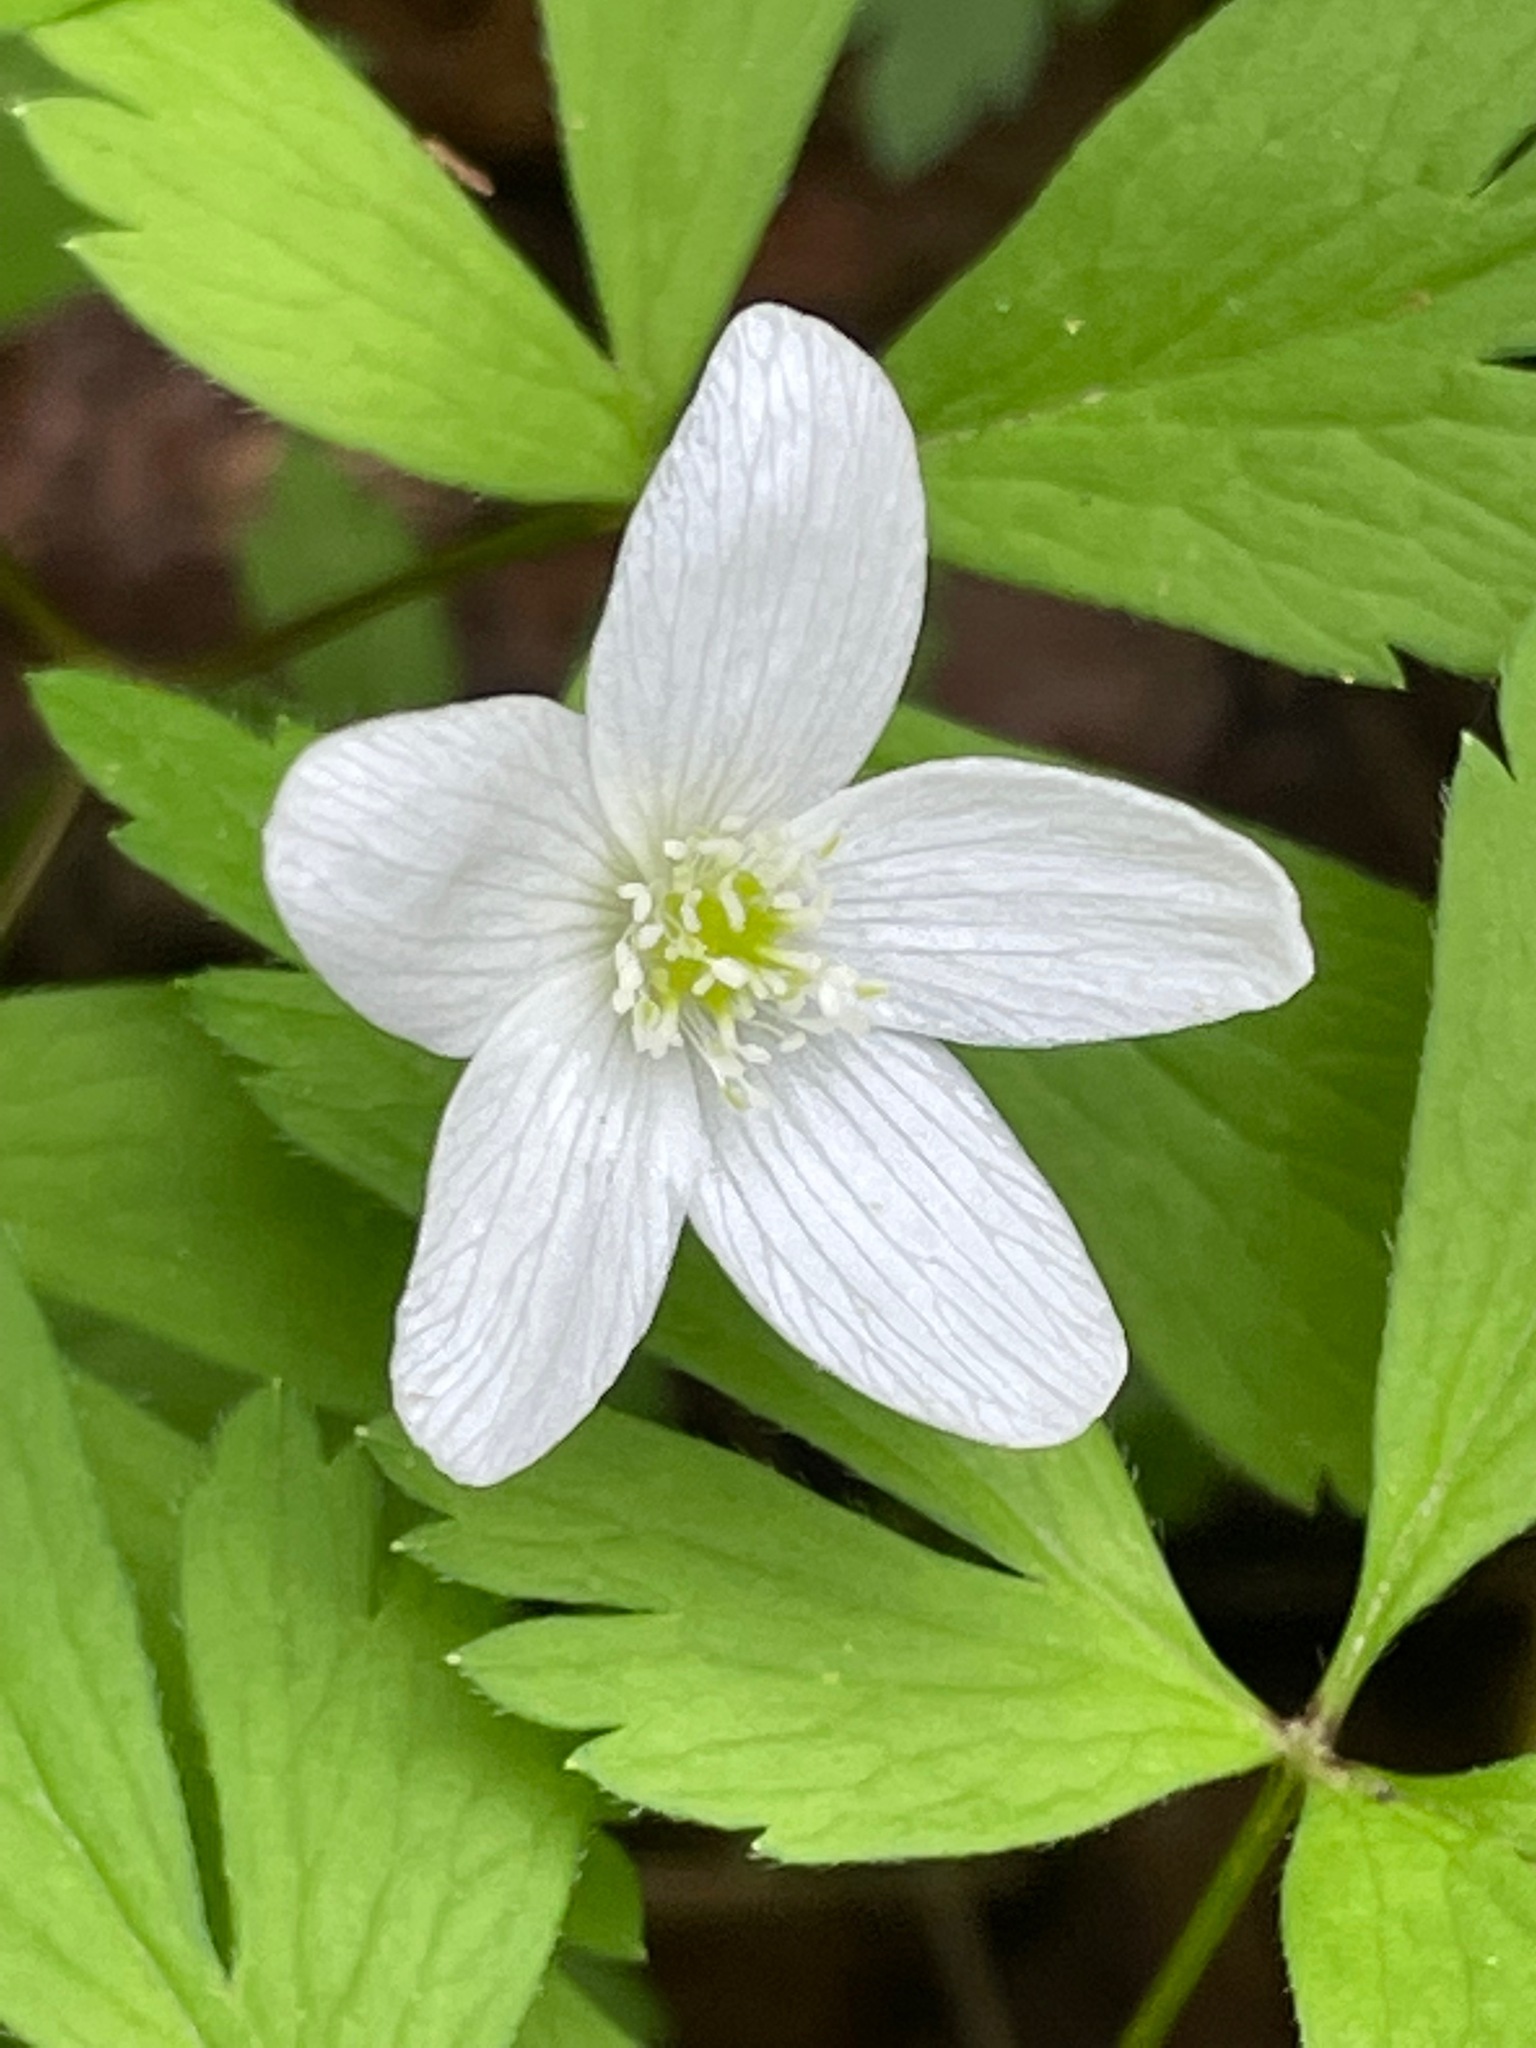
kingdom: Plantae
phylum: Tracheophyta
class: Magnoliopsida
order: Ranunculales
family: Ranunculaceae
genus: Anemone
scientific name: Anemone quinquefolia
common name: Wood anemone
